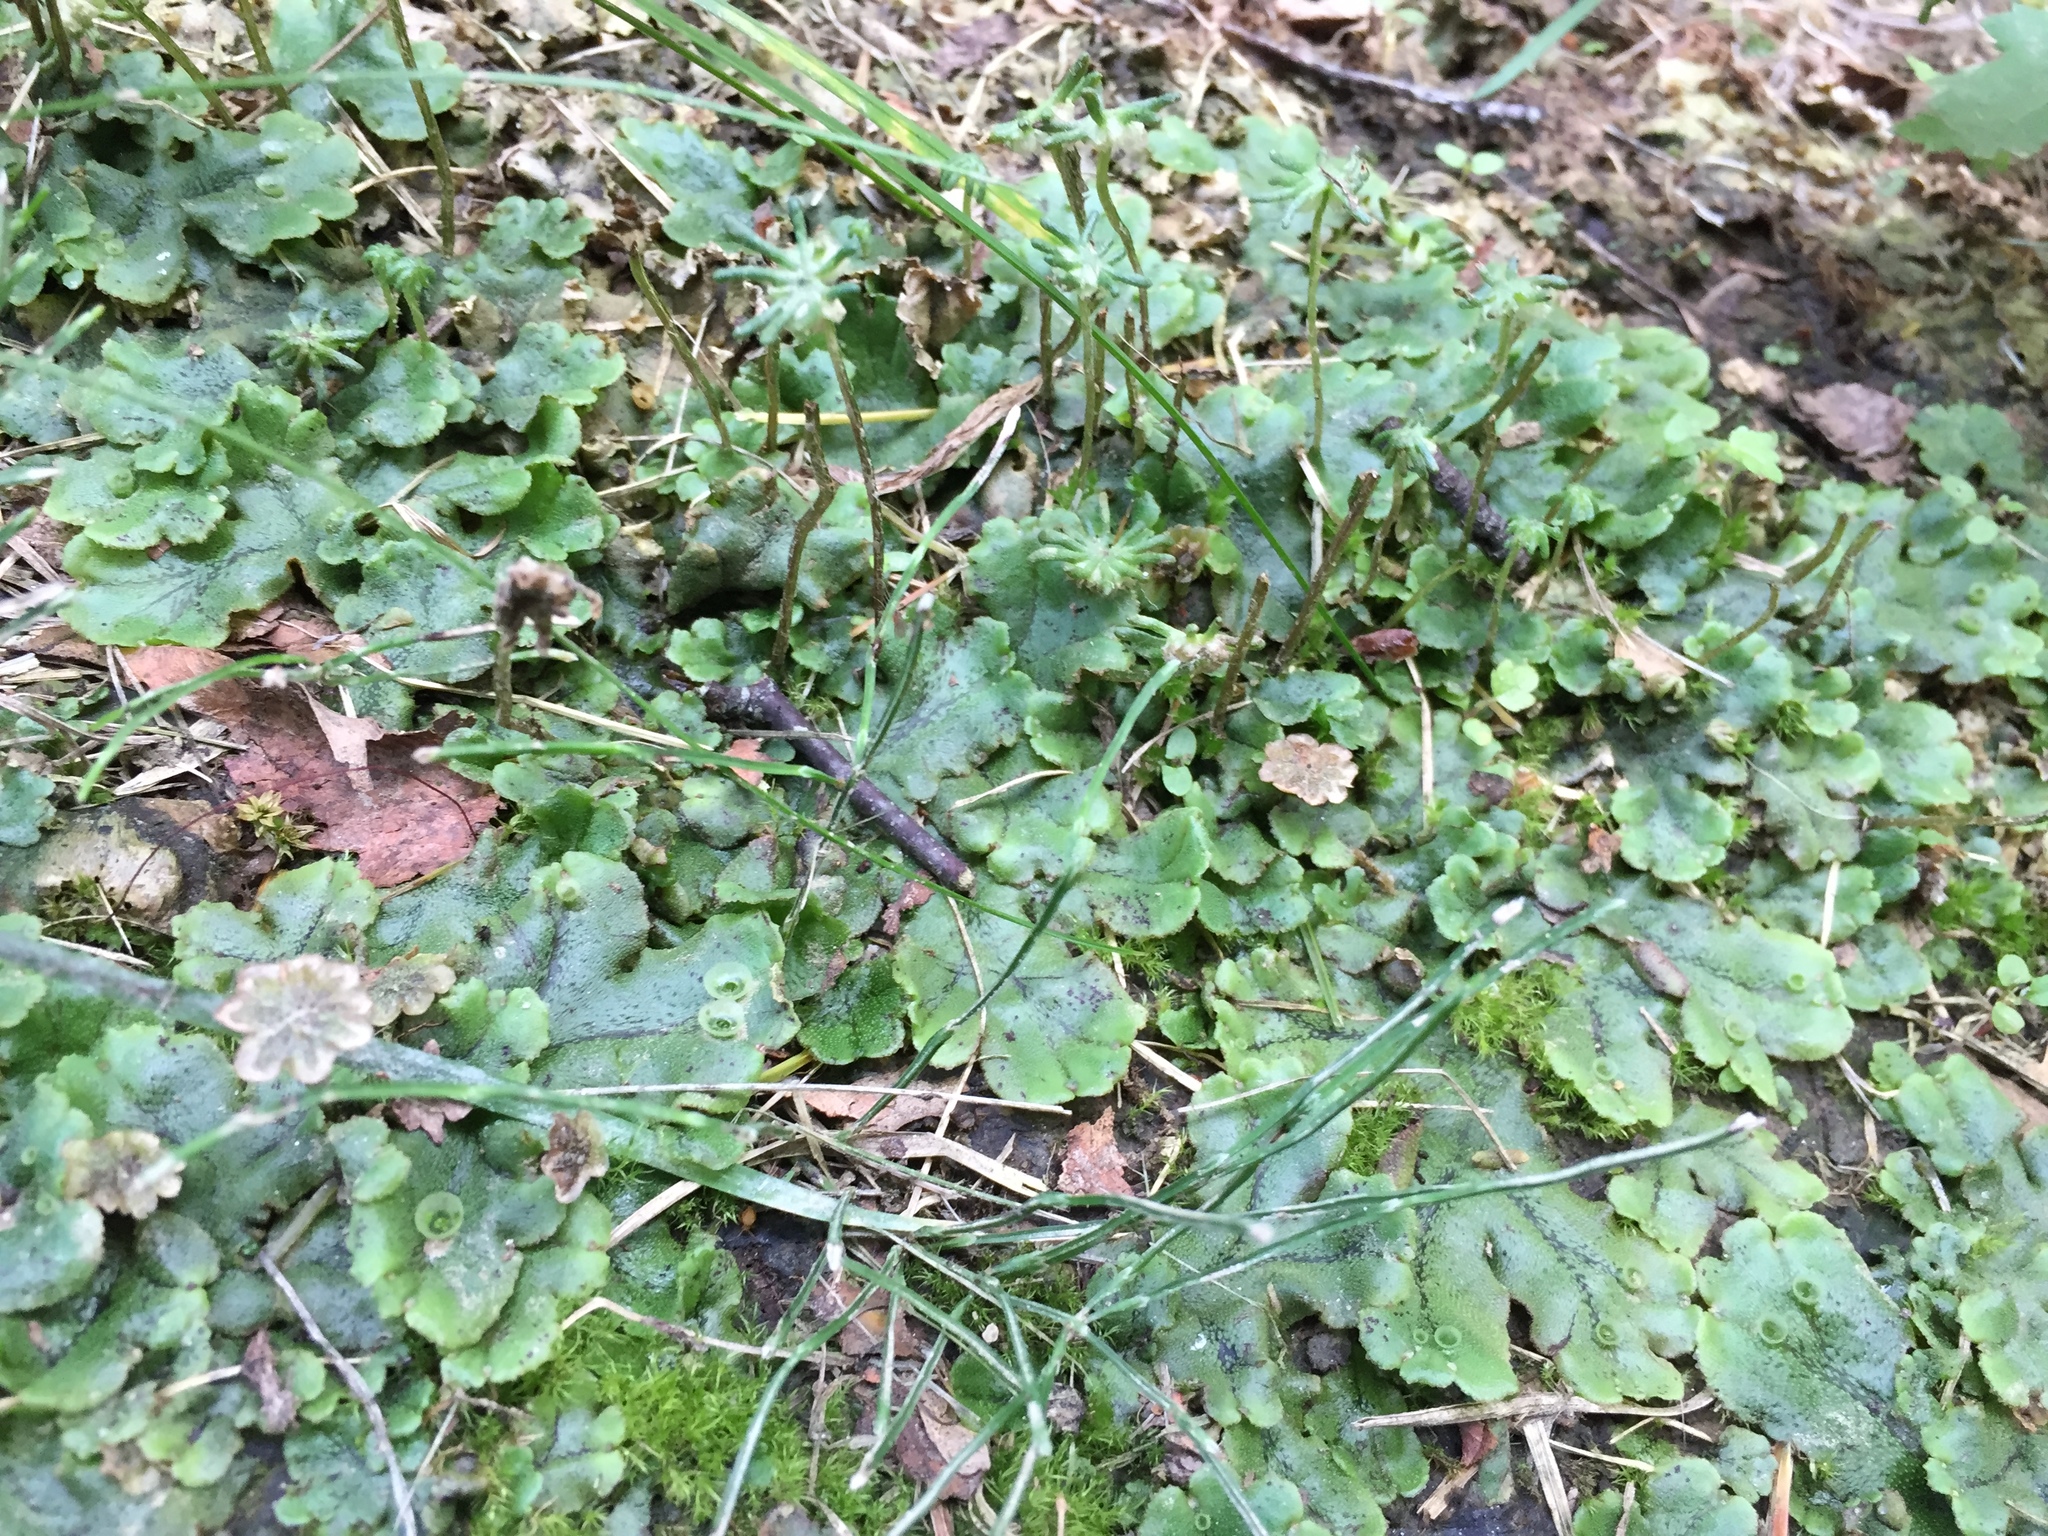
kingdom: Plantae
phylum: Marchantiophyta
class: Marchantiopsida
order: Marchantiales
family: Marchantiaceae
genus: Marchantia
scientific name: Marchantia polymorpha
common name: Common liverwort
